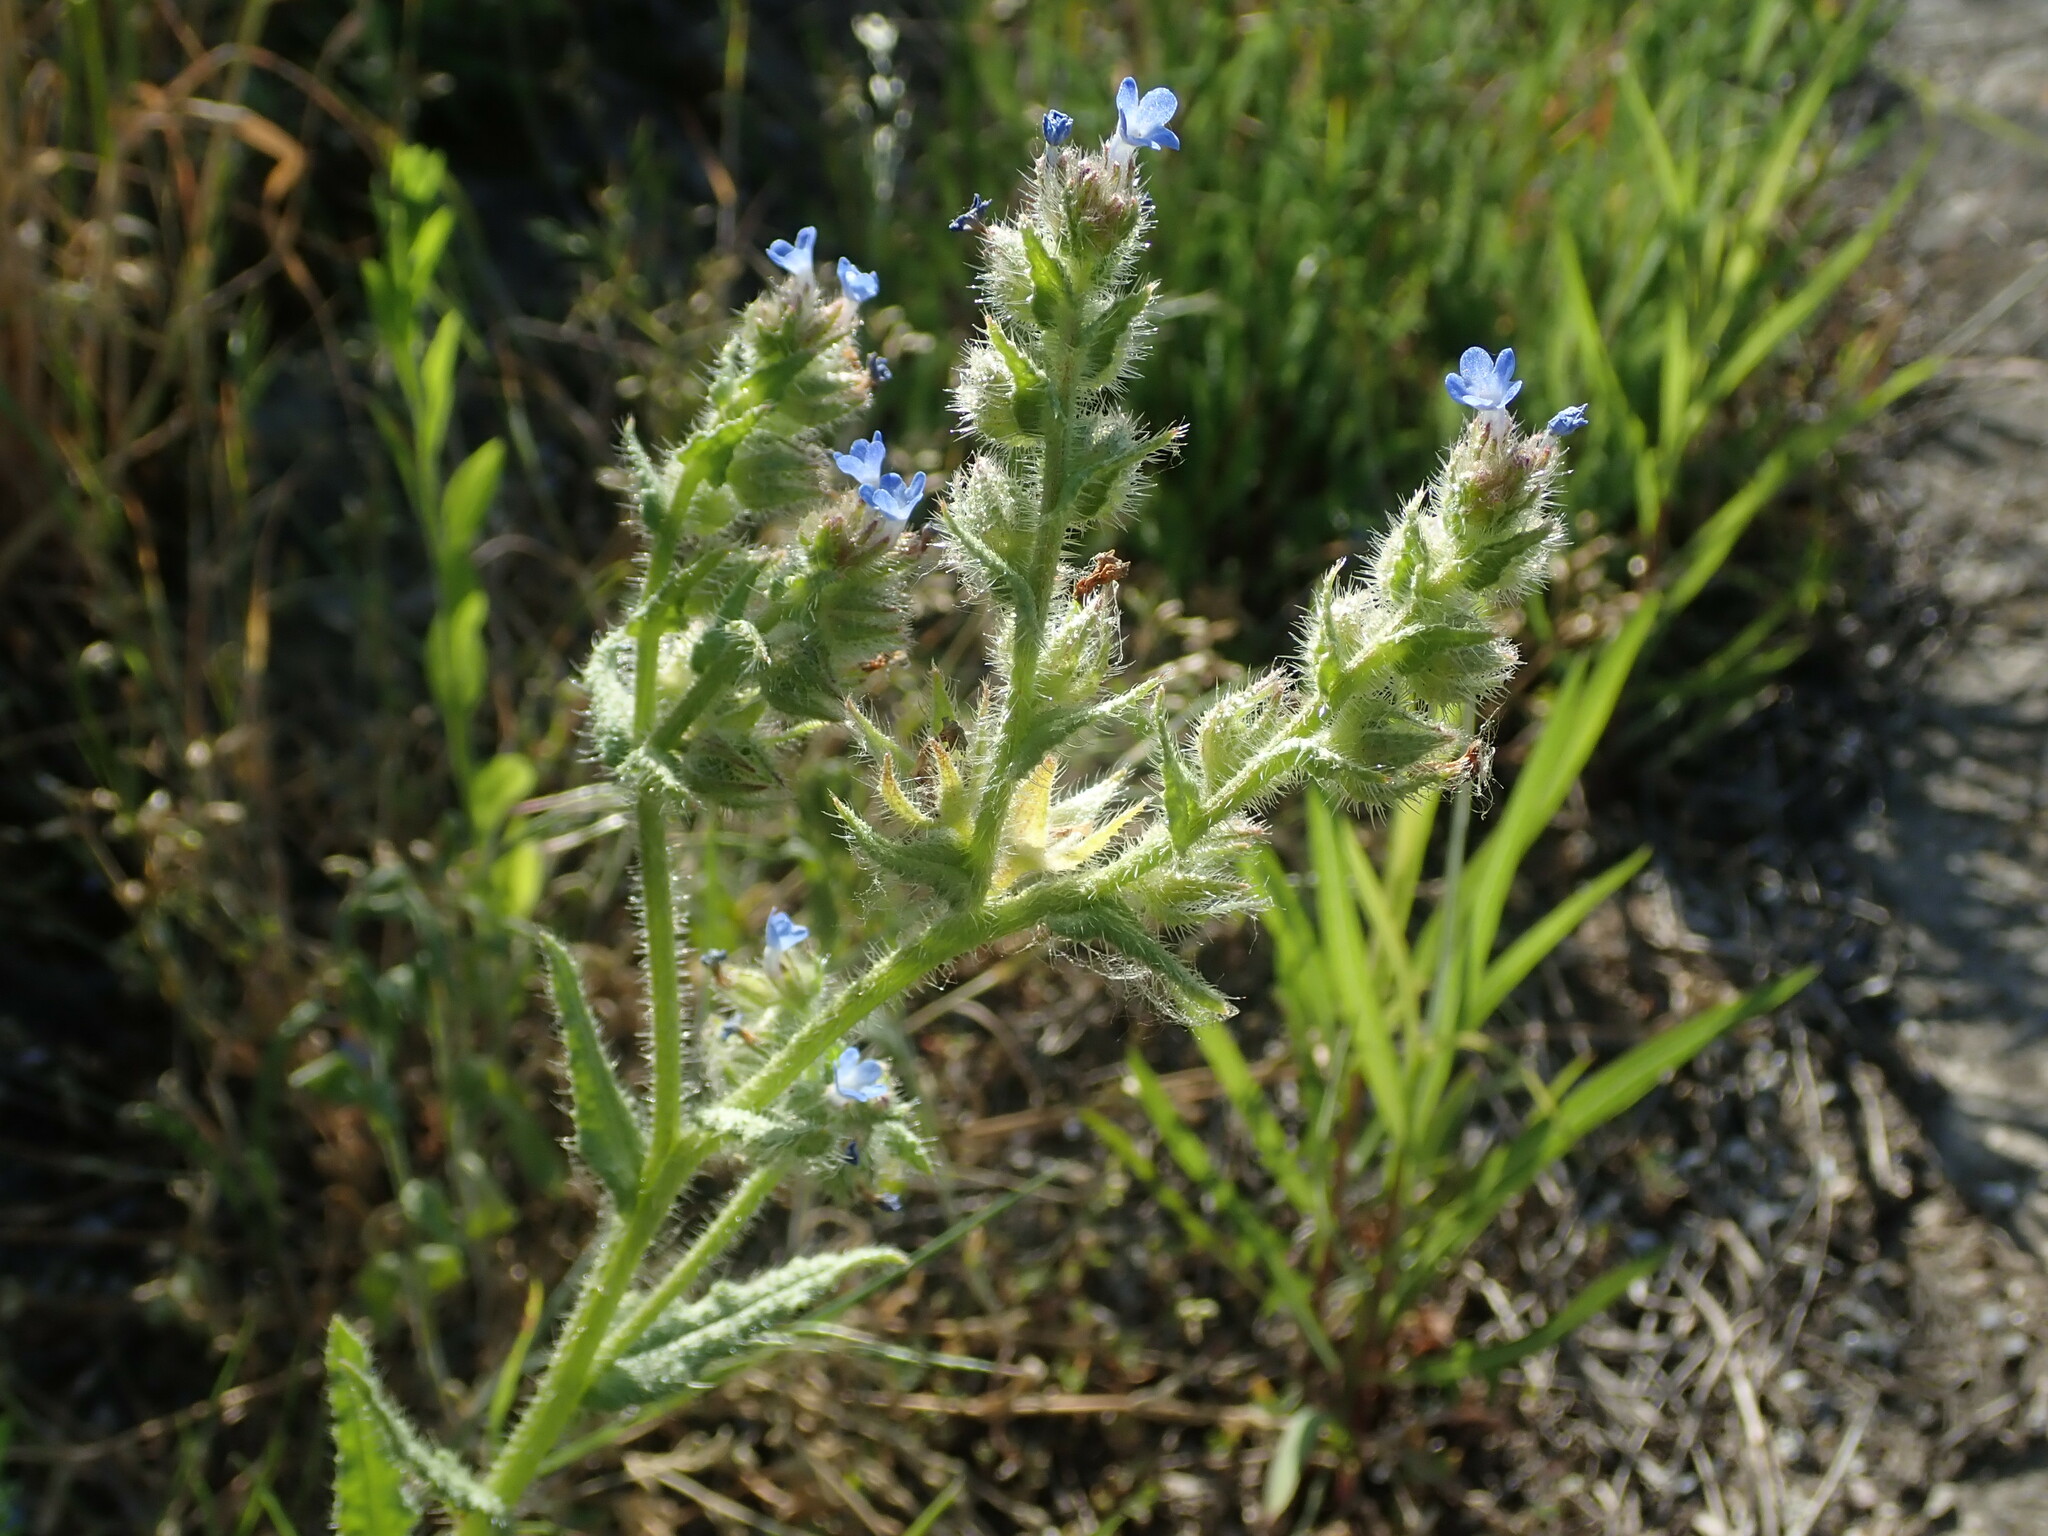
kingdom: Plantae
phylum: Tracheophyta
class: Magnoliopsida
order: Boraginales
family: Boraginaceae
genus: Lycopsis
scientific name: Lycopsis arvensis
